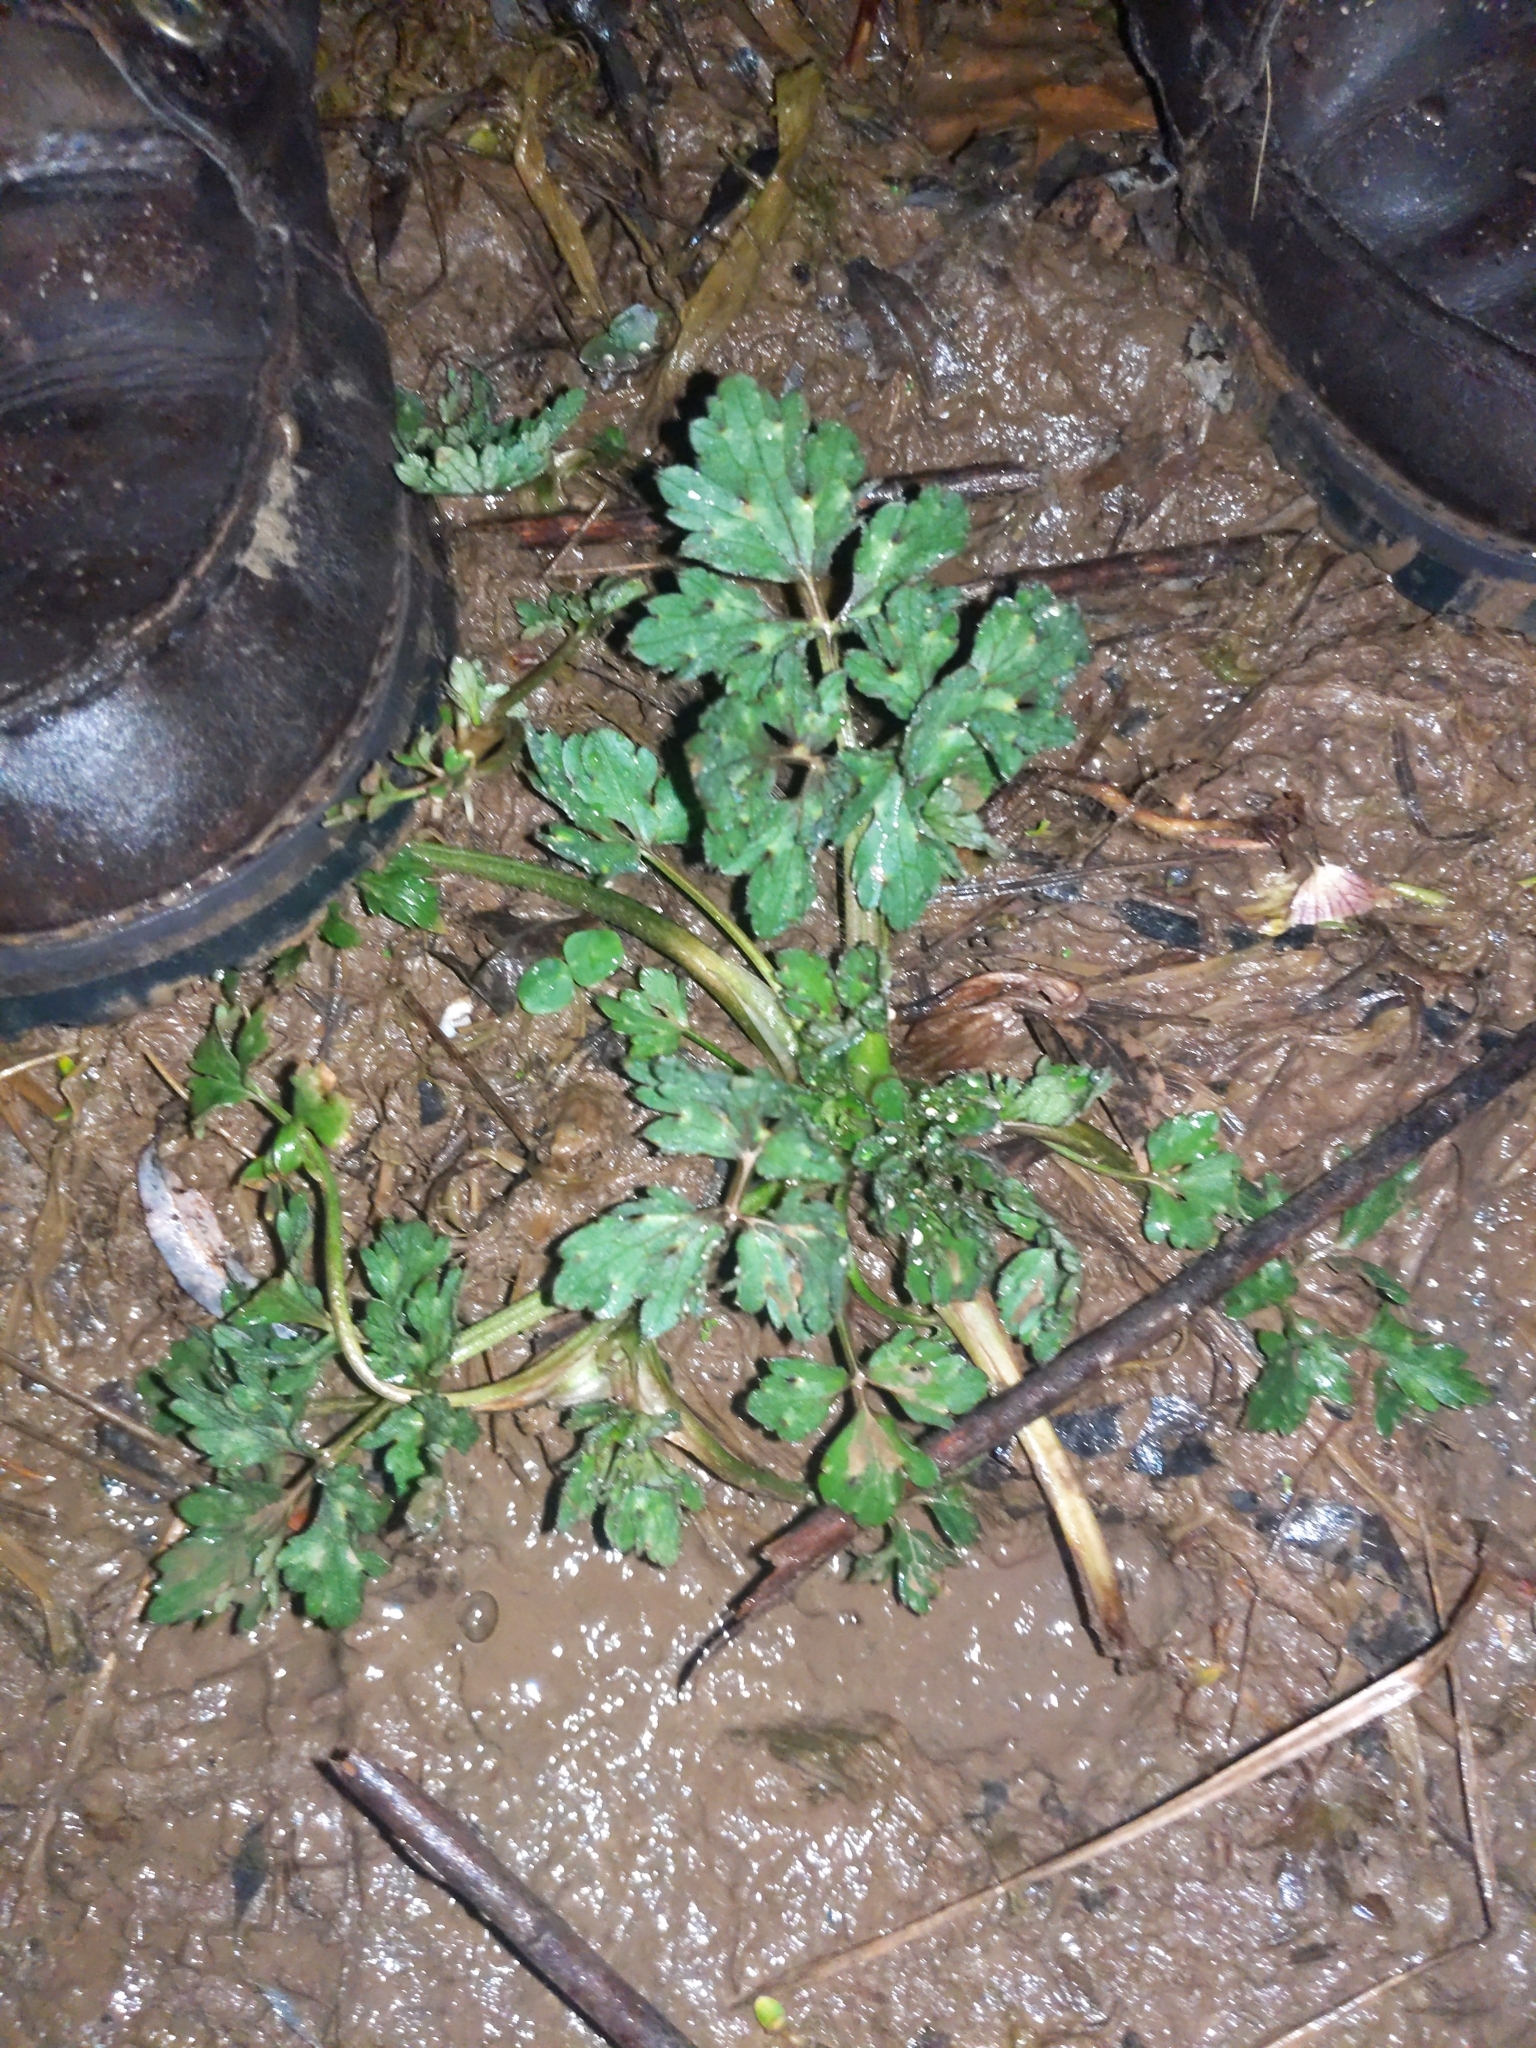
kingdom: Plantae
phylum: Tracheophyta
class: Magnoliopsida
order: Ranunculales
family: Ranunculaceae
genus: Ranunculus
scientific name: Ranunculus repens
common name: Creeping buttercup
